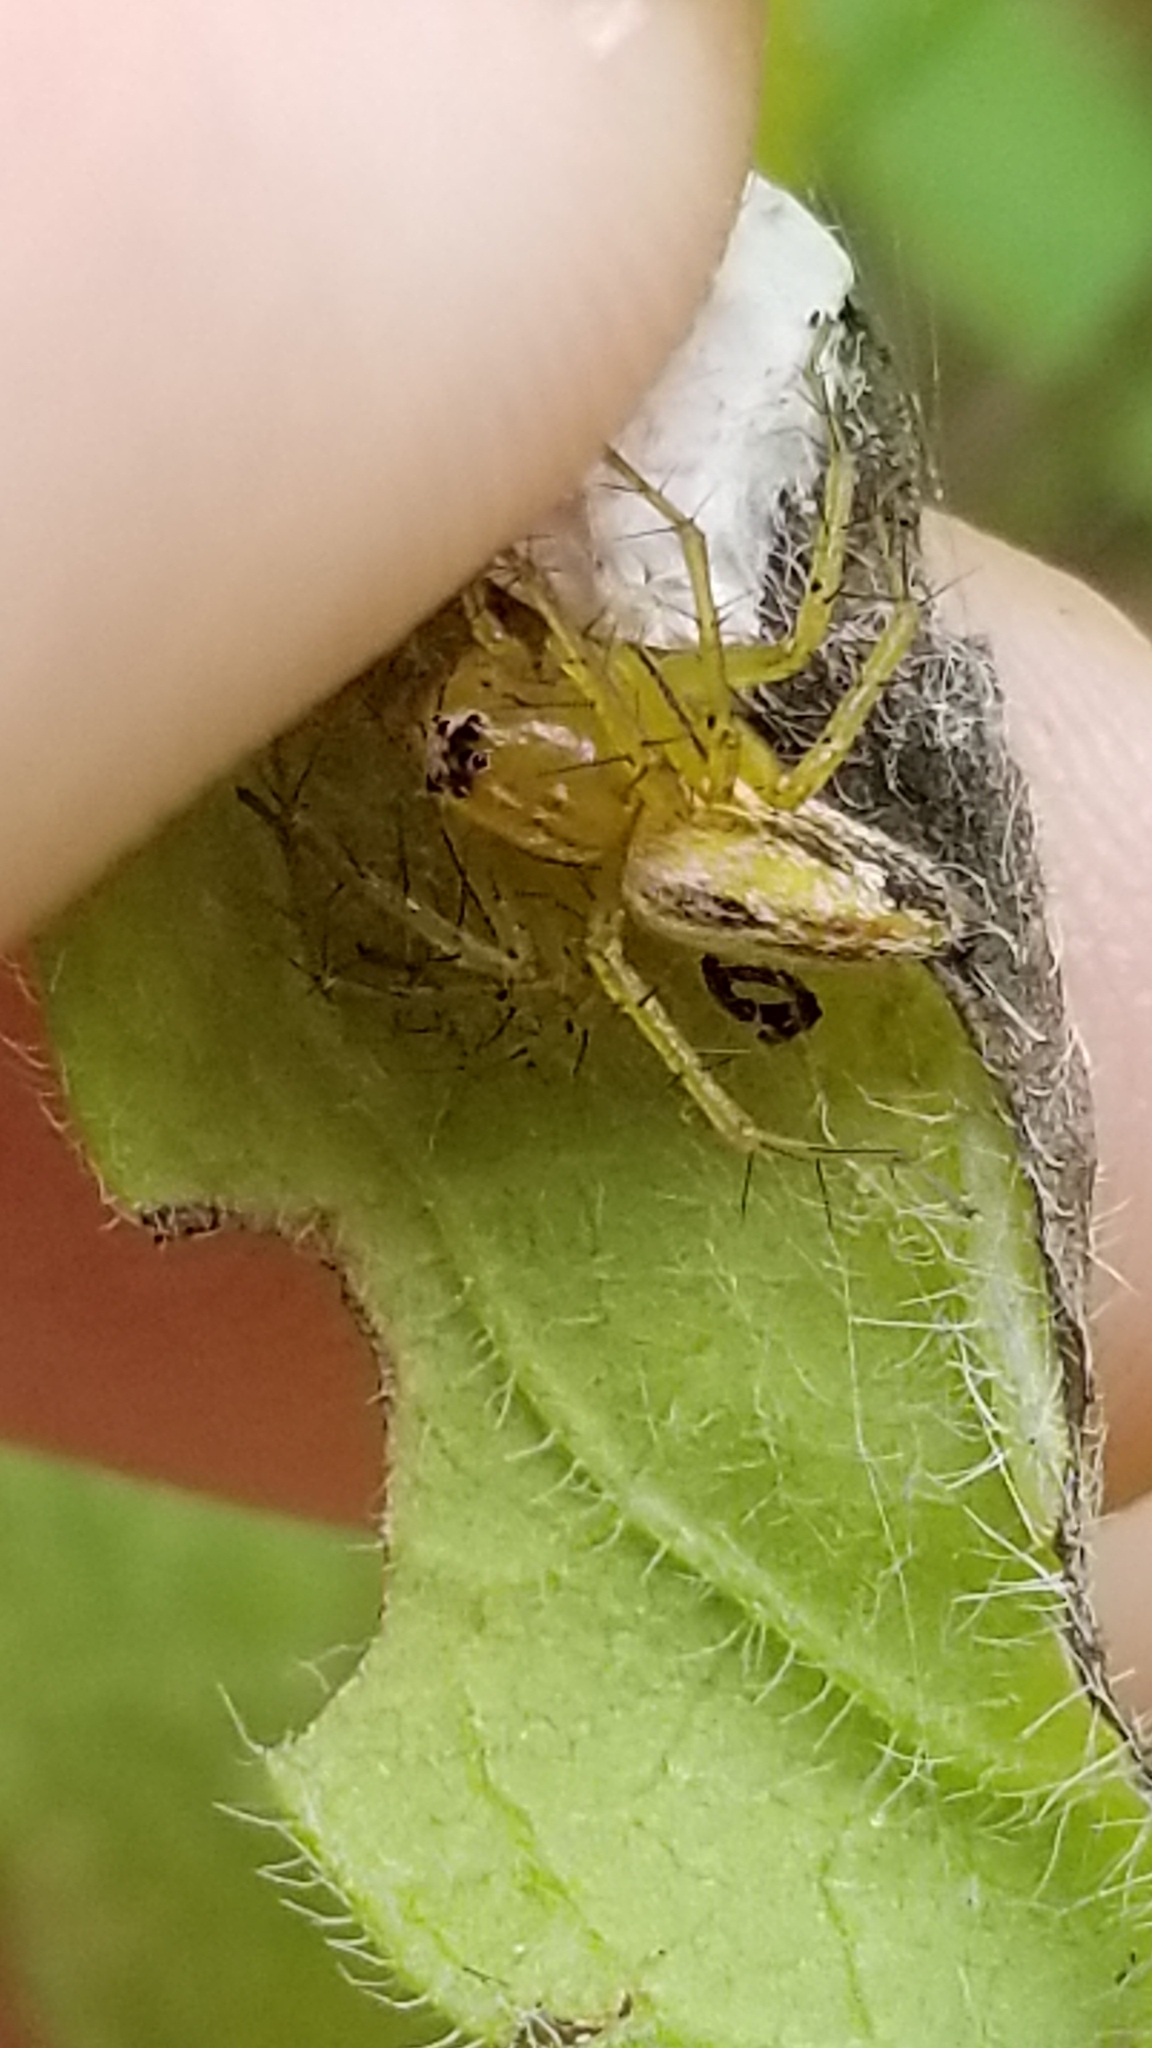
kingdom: Animalia
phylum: Arthropoda
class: Arachnida
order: Araneae
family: Oxyopidae
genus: Oxyopes
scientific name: Oxyopes salticus
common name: Lynx spiders
